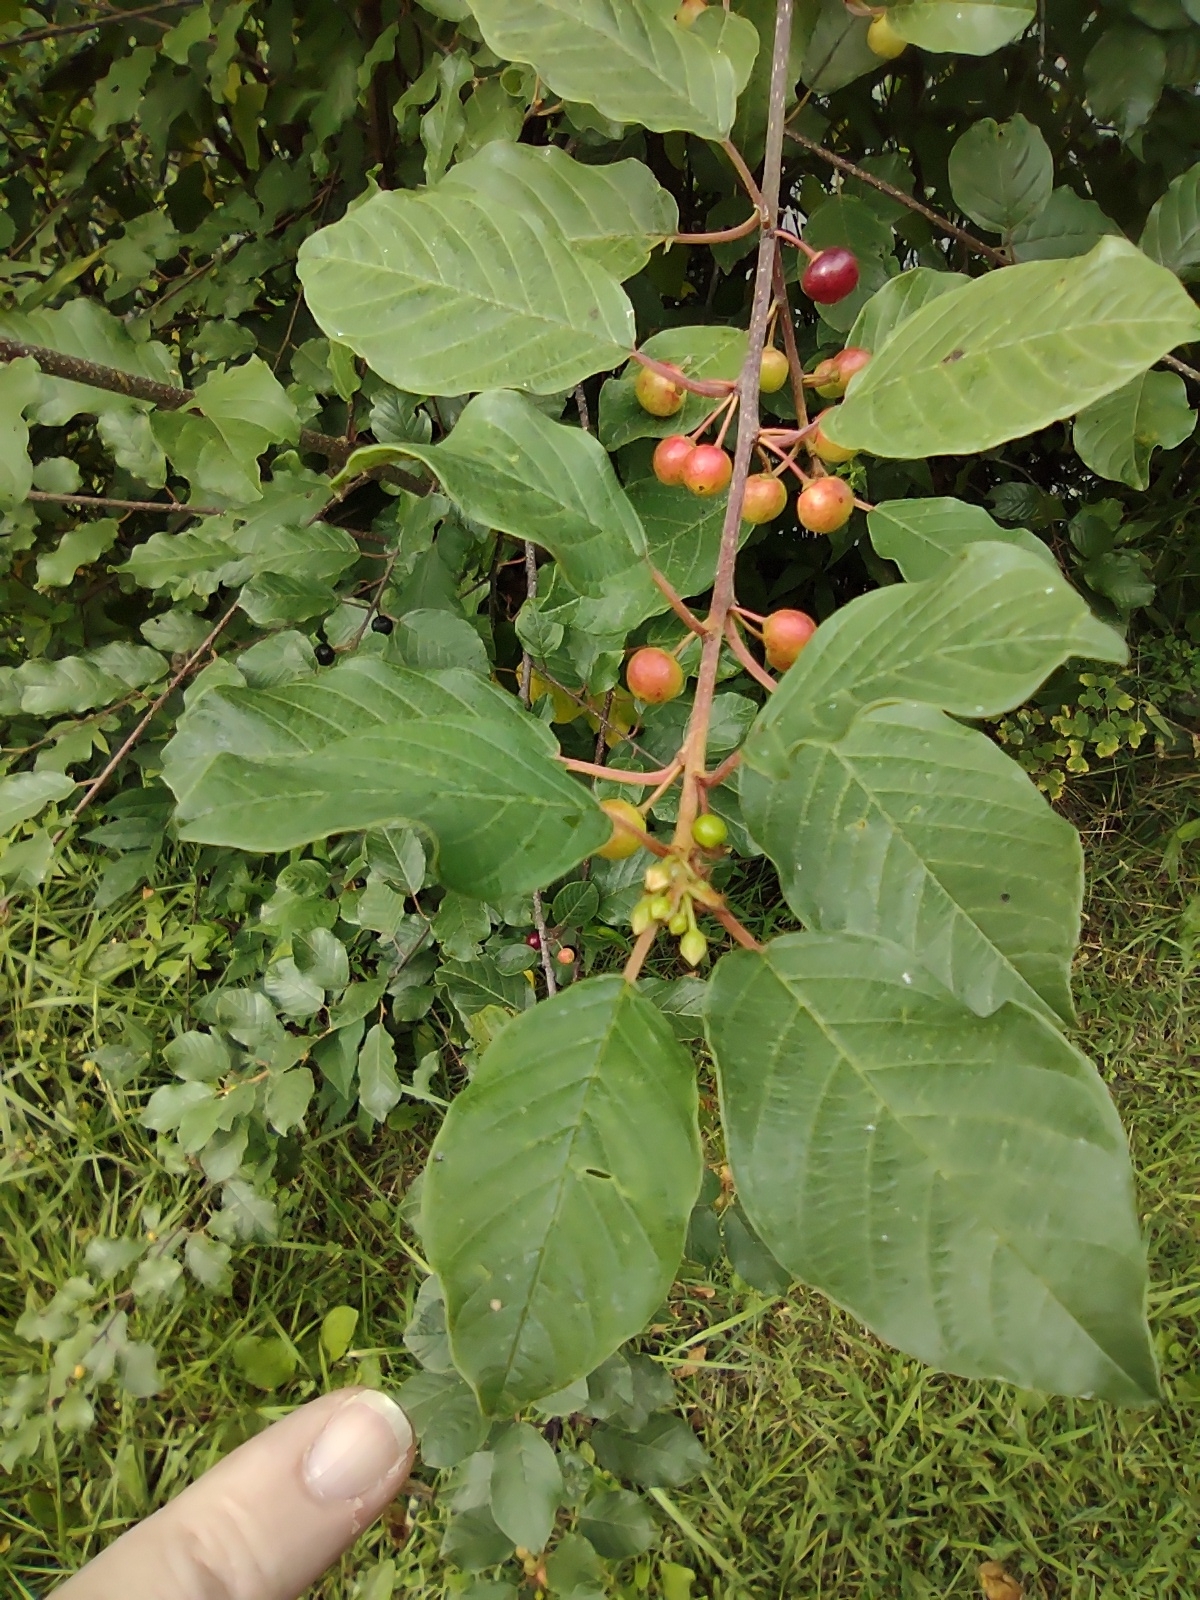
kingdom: Plantae
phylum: Tracheophyta
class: Magnoliopsida
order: Rosales
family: Rhamnaceae
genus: Frangula
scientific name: Frangula alnus
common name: Alder buckthorn
